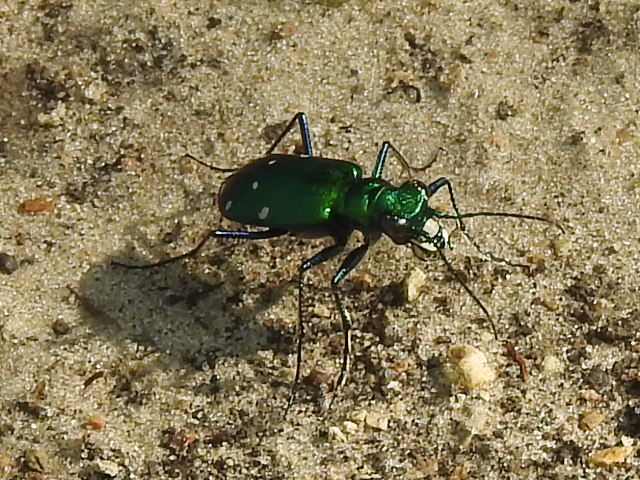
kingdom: Animalia
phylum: Arthropoda
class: Insecta
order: Coleoptera
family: Carabidae
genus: Cicindela
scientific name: Cicindela sexguttata
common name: Six-spotted tiger beetle
